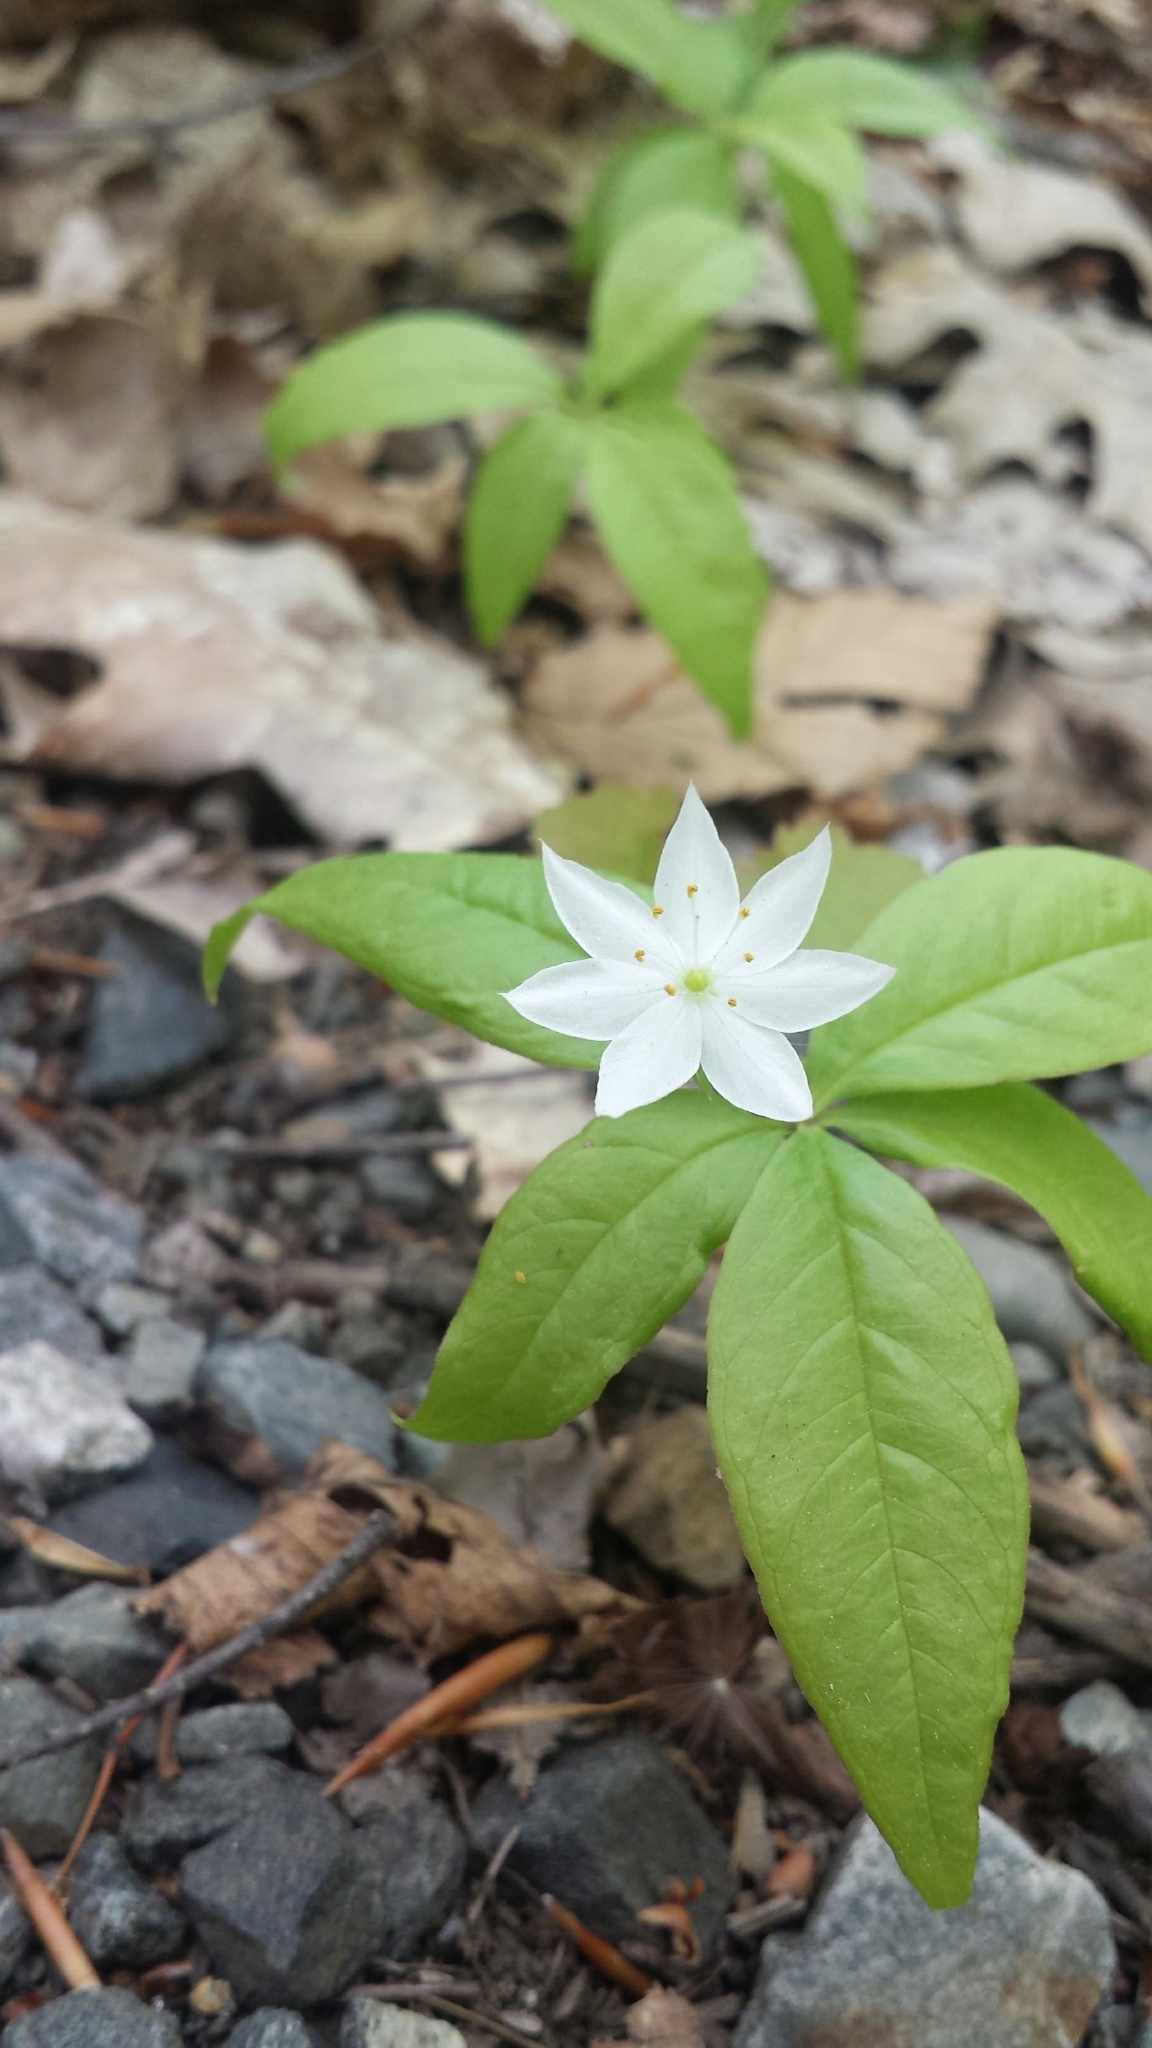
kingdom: Plantae
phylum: Tracheophyta
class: Magnoliopsida
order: Ericales
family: Primulaceae
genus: Lysimachia
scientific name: Lysimachia borealis
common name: American starflower
